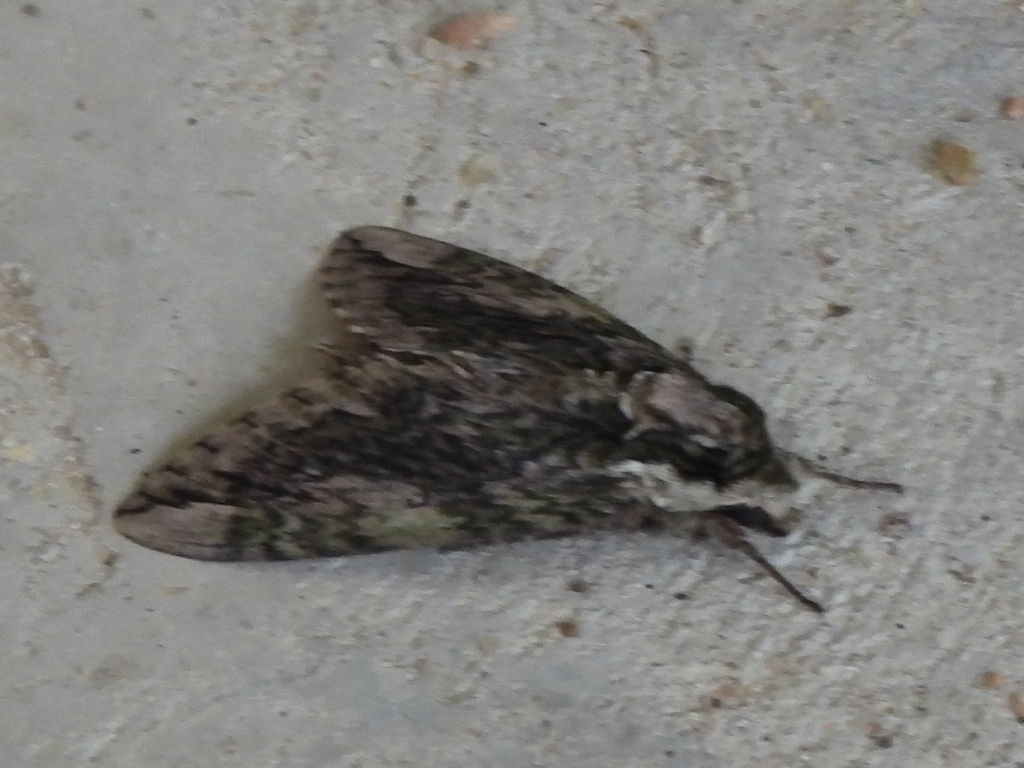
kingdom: Animalia
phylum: Arthropoda
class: Insecta
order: Lepidoptera
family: Sphingidae
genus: Ceratomia
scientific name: Ceratomia hageni
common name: Hagen's sphinx
